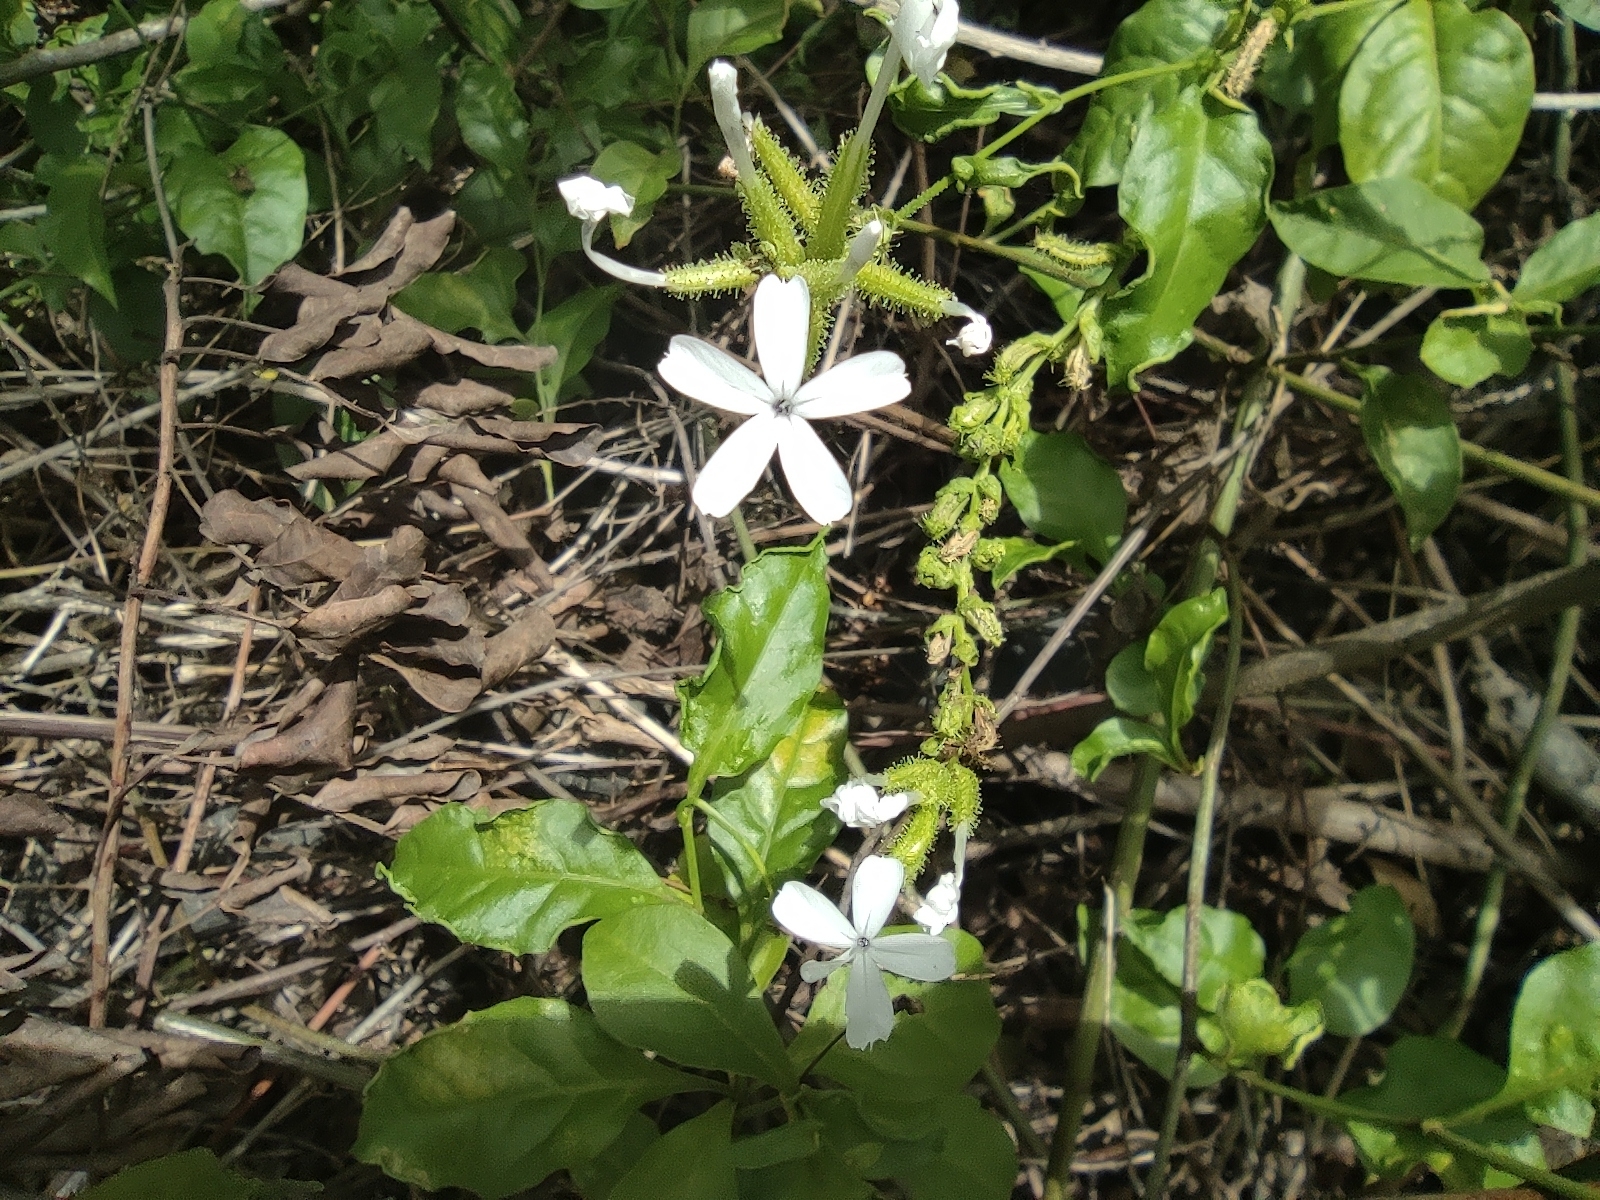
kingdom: Plantae
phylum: Tracheophyta
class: Magnoliopsida
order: Caryophyllales
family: Plumbaginaceae
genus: Plumbago
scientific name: Plumbago zeylanica
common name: Doctorbush
